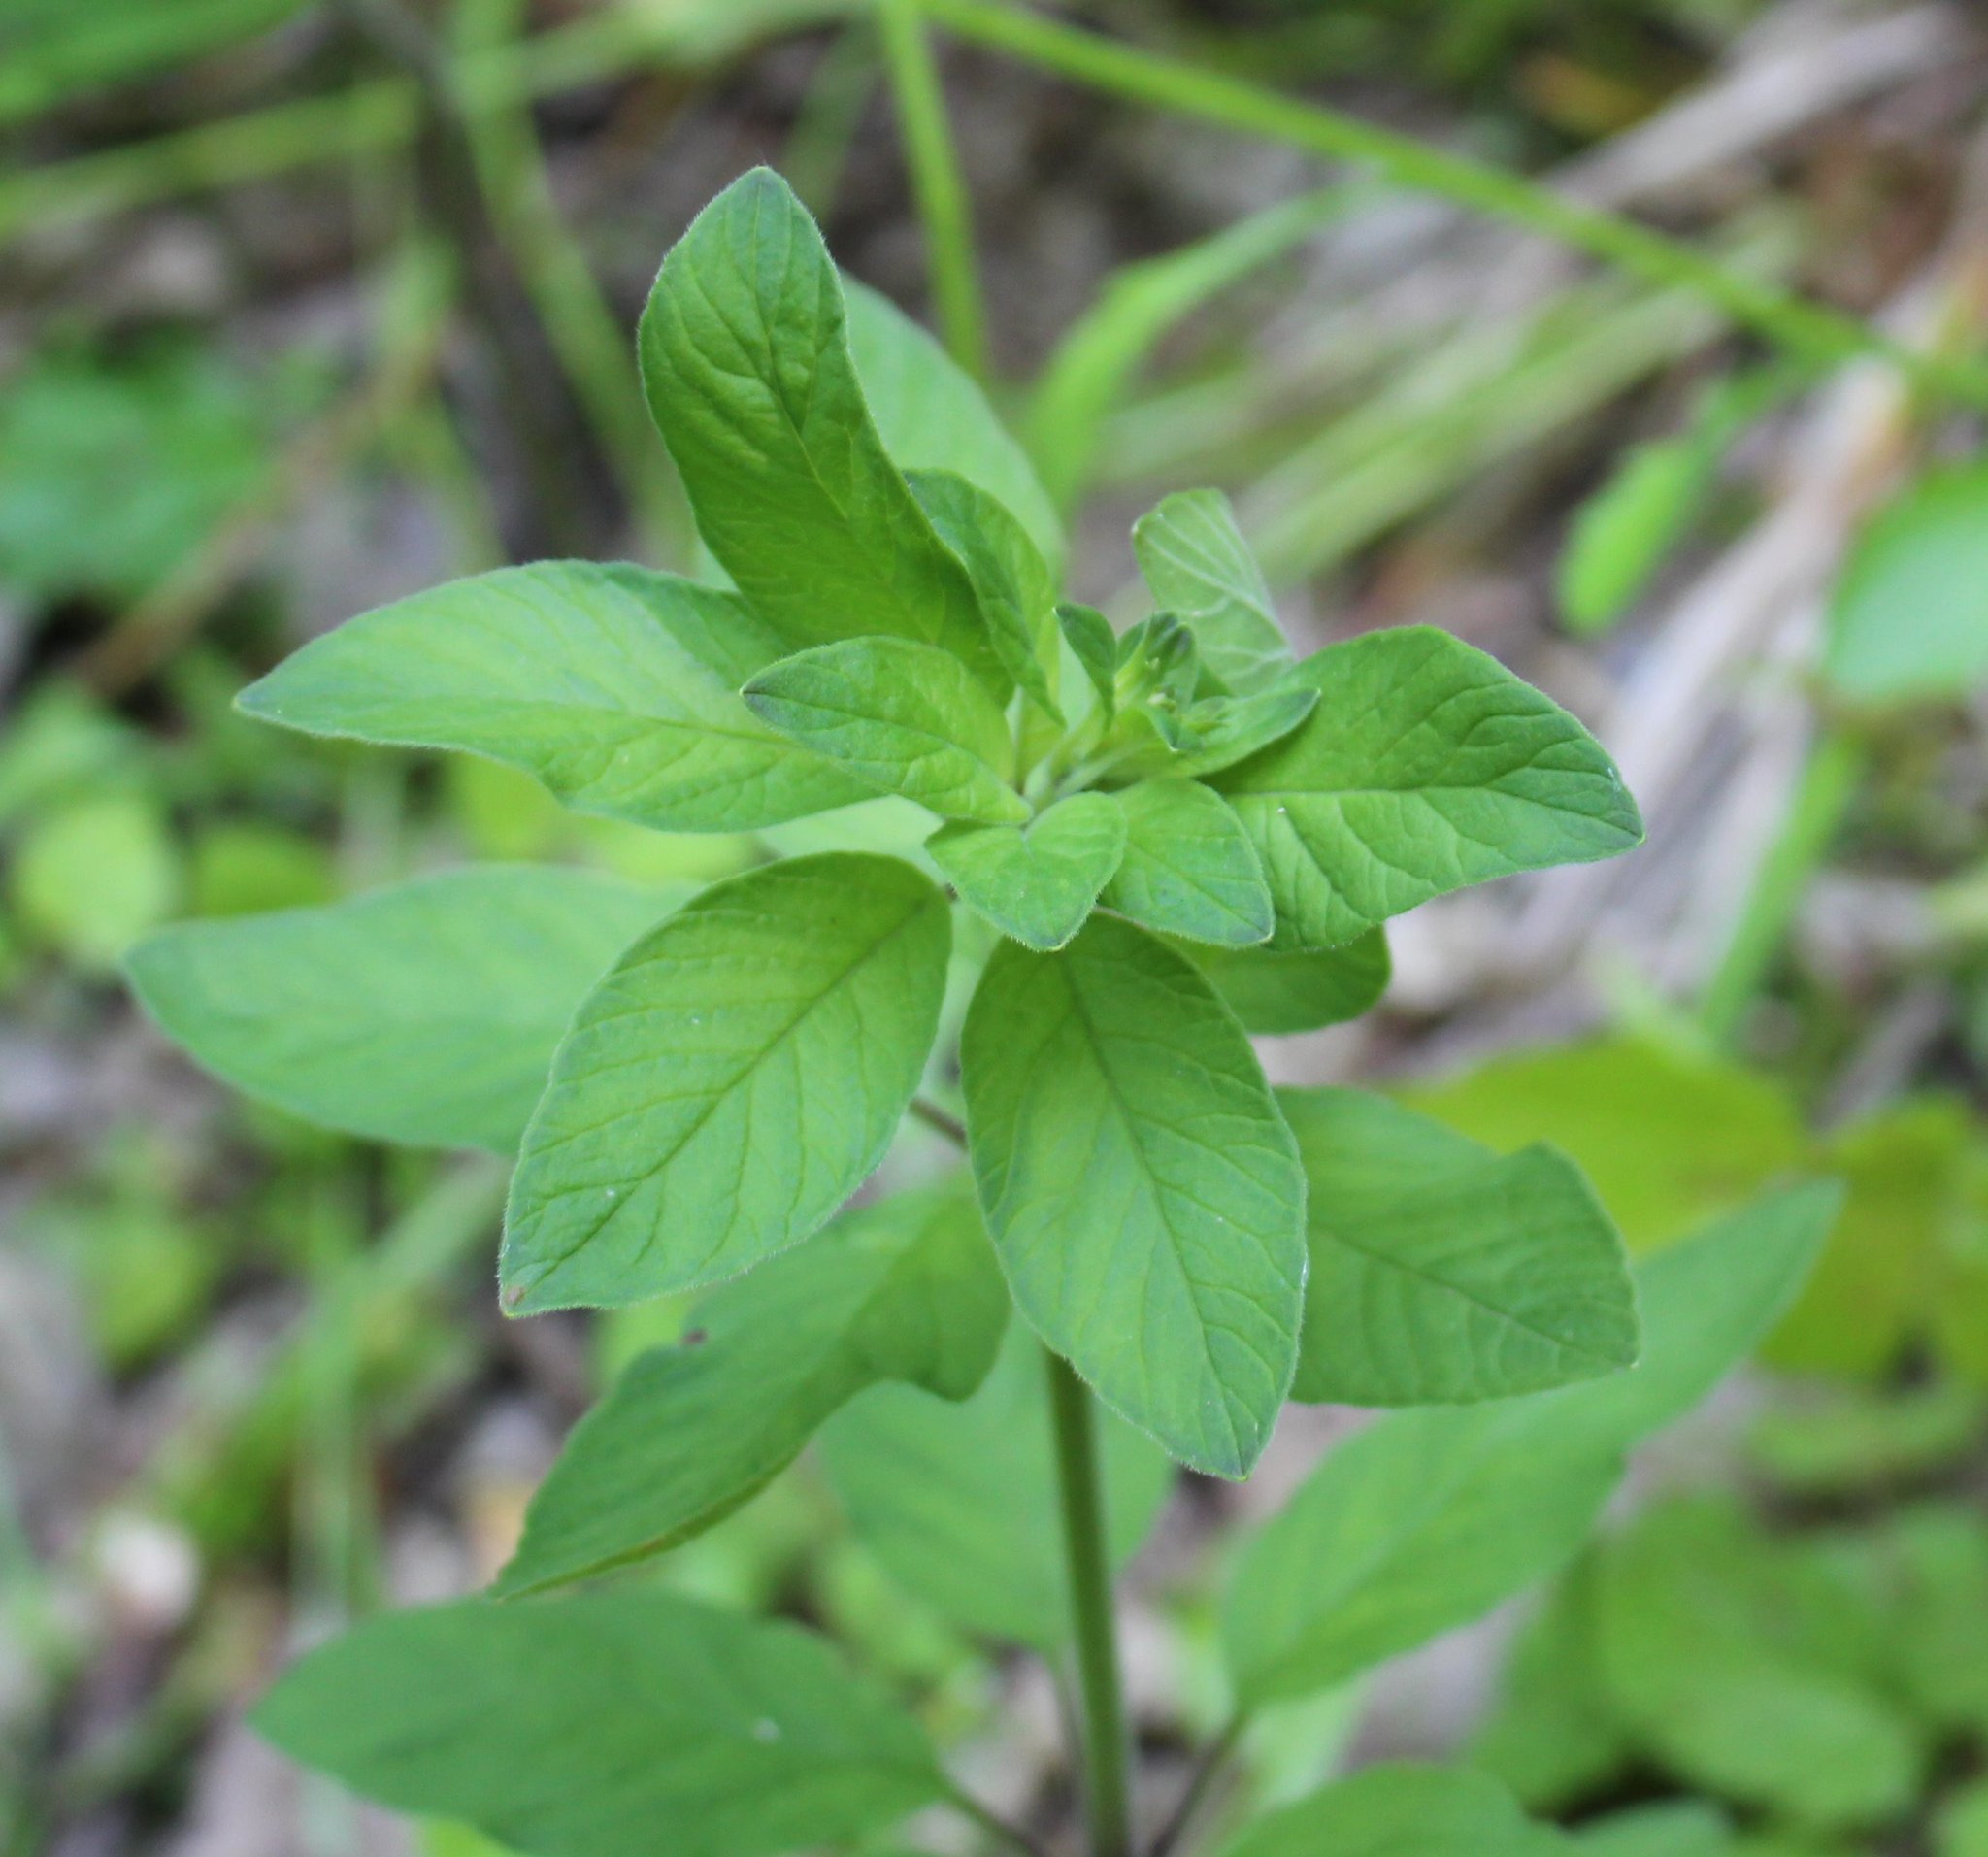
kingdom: Plantae
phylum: Tracheophyta
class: Magnoliopsida
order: Ericales
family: Primulaceae
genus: Lysimachia
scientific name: Lysimachia verticillaris
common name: Yellow loosestrife
